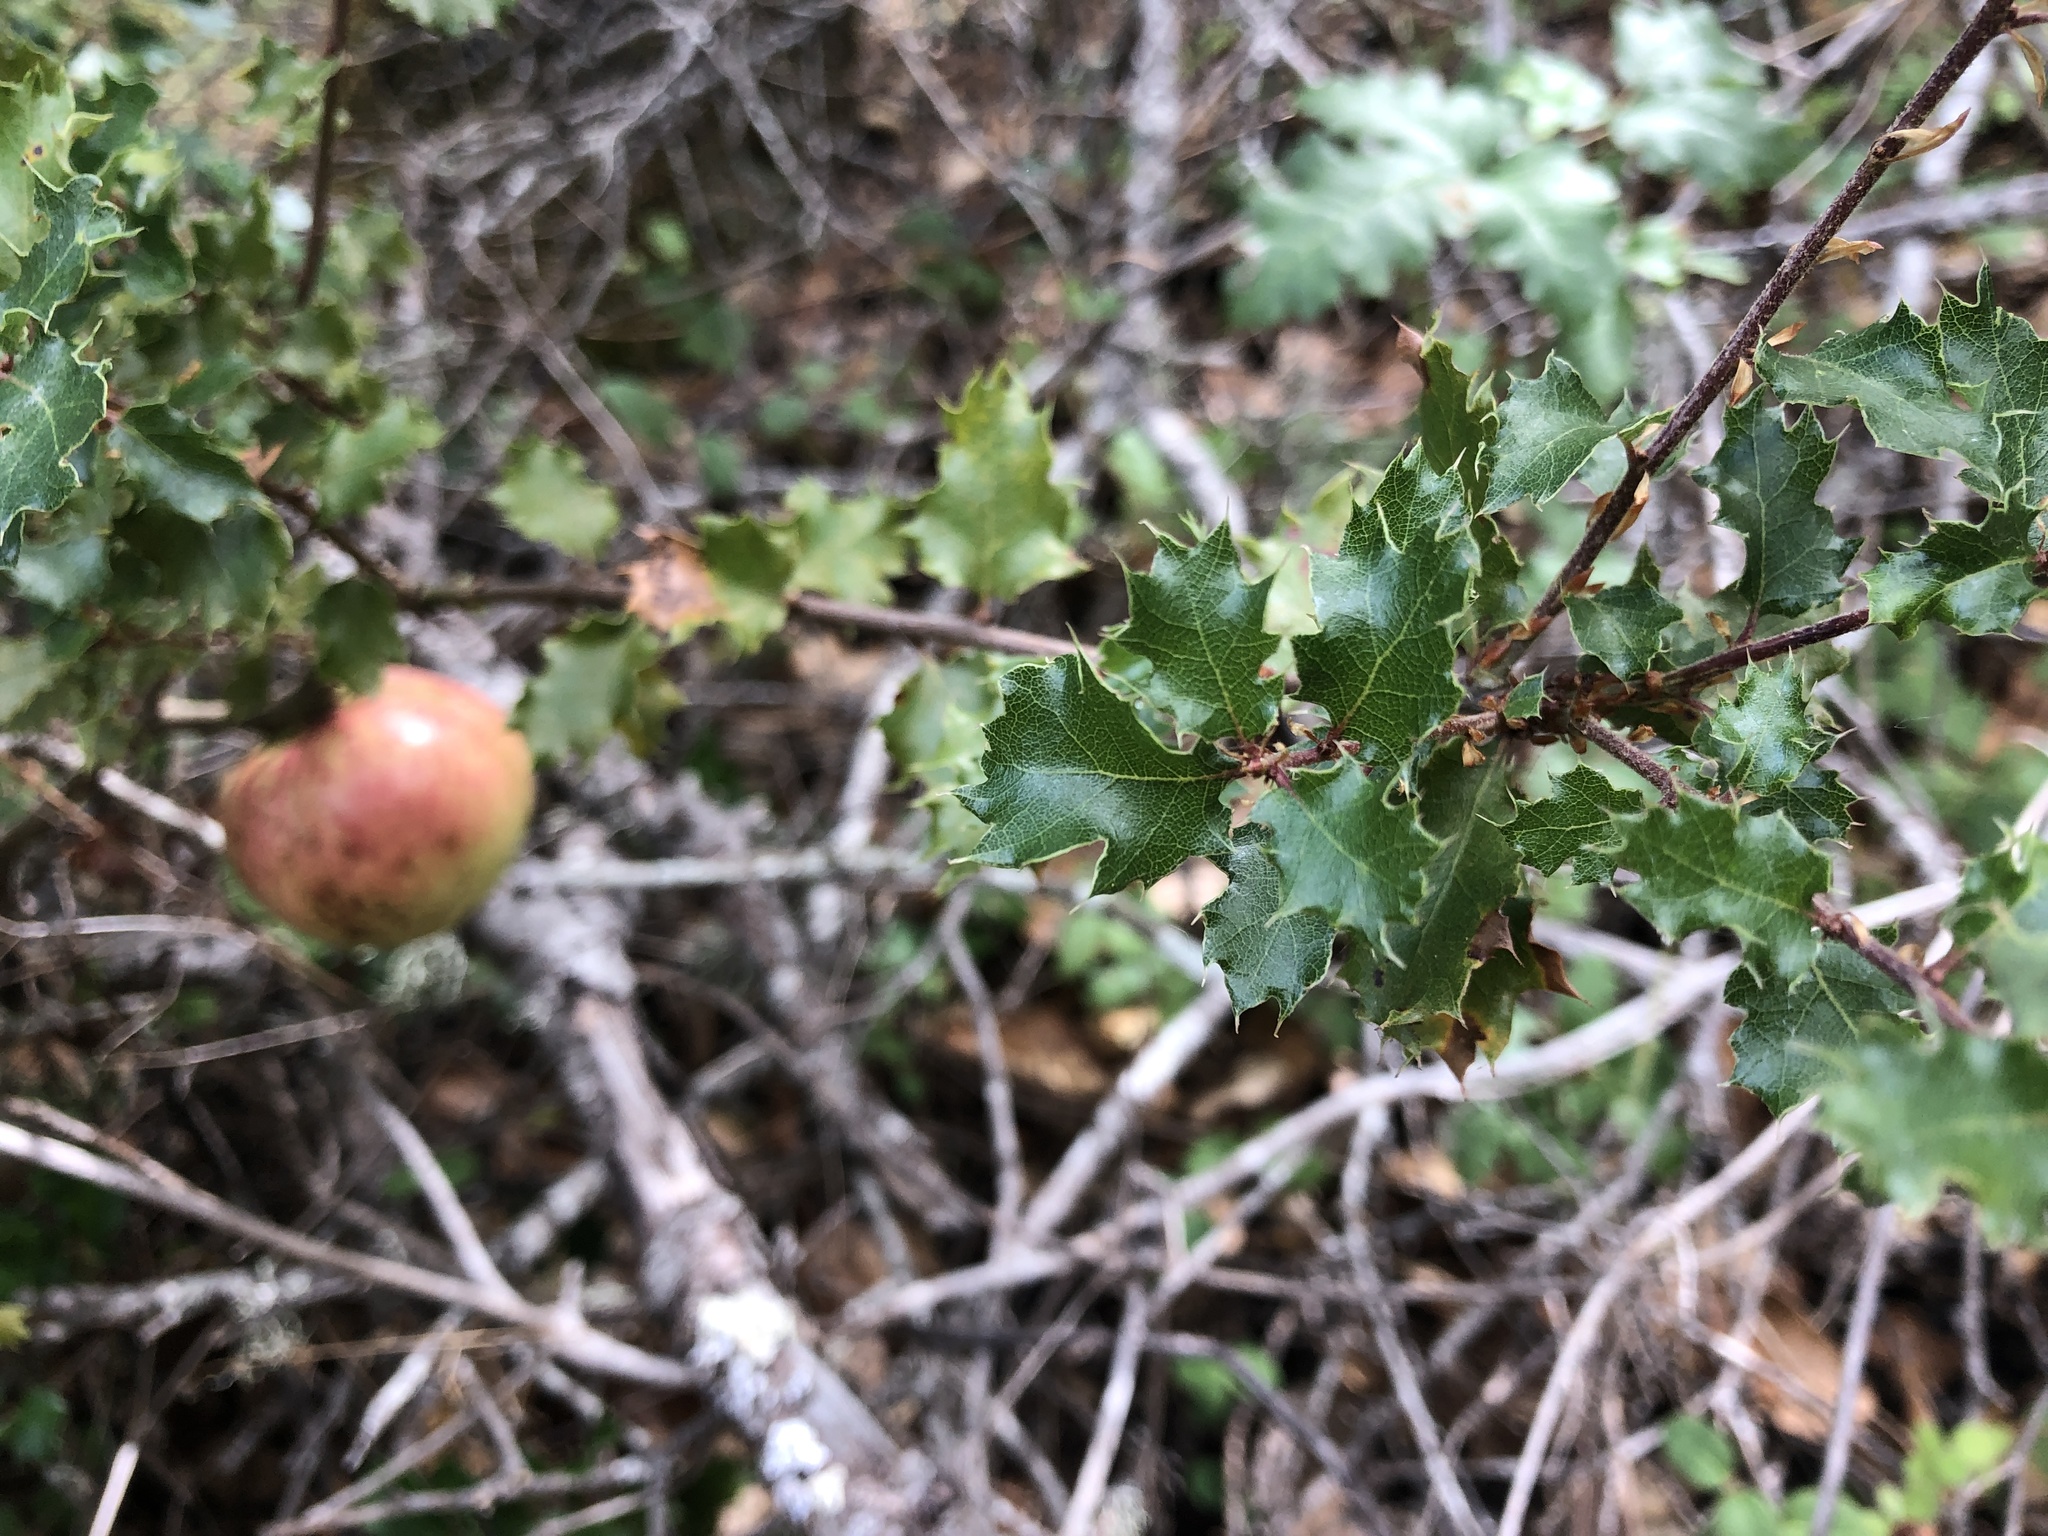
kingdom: Animalia
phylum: Arthropoda
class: Insecta
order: Hymenoptera
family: Cynipidae
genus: Andricus
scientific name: Andricus quercuscalifornicus
